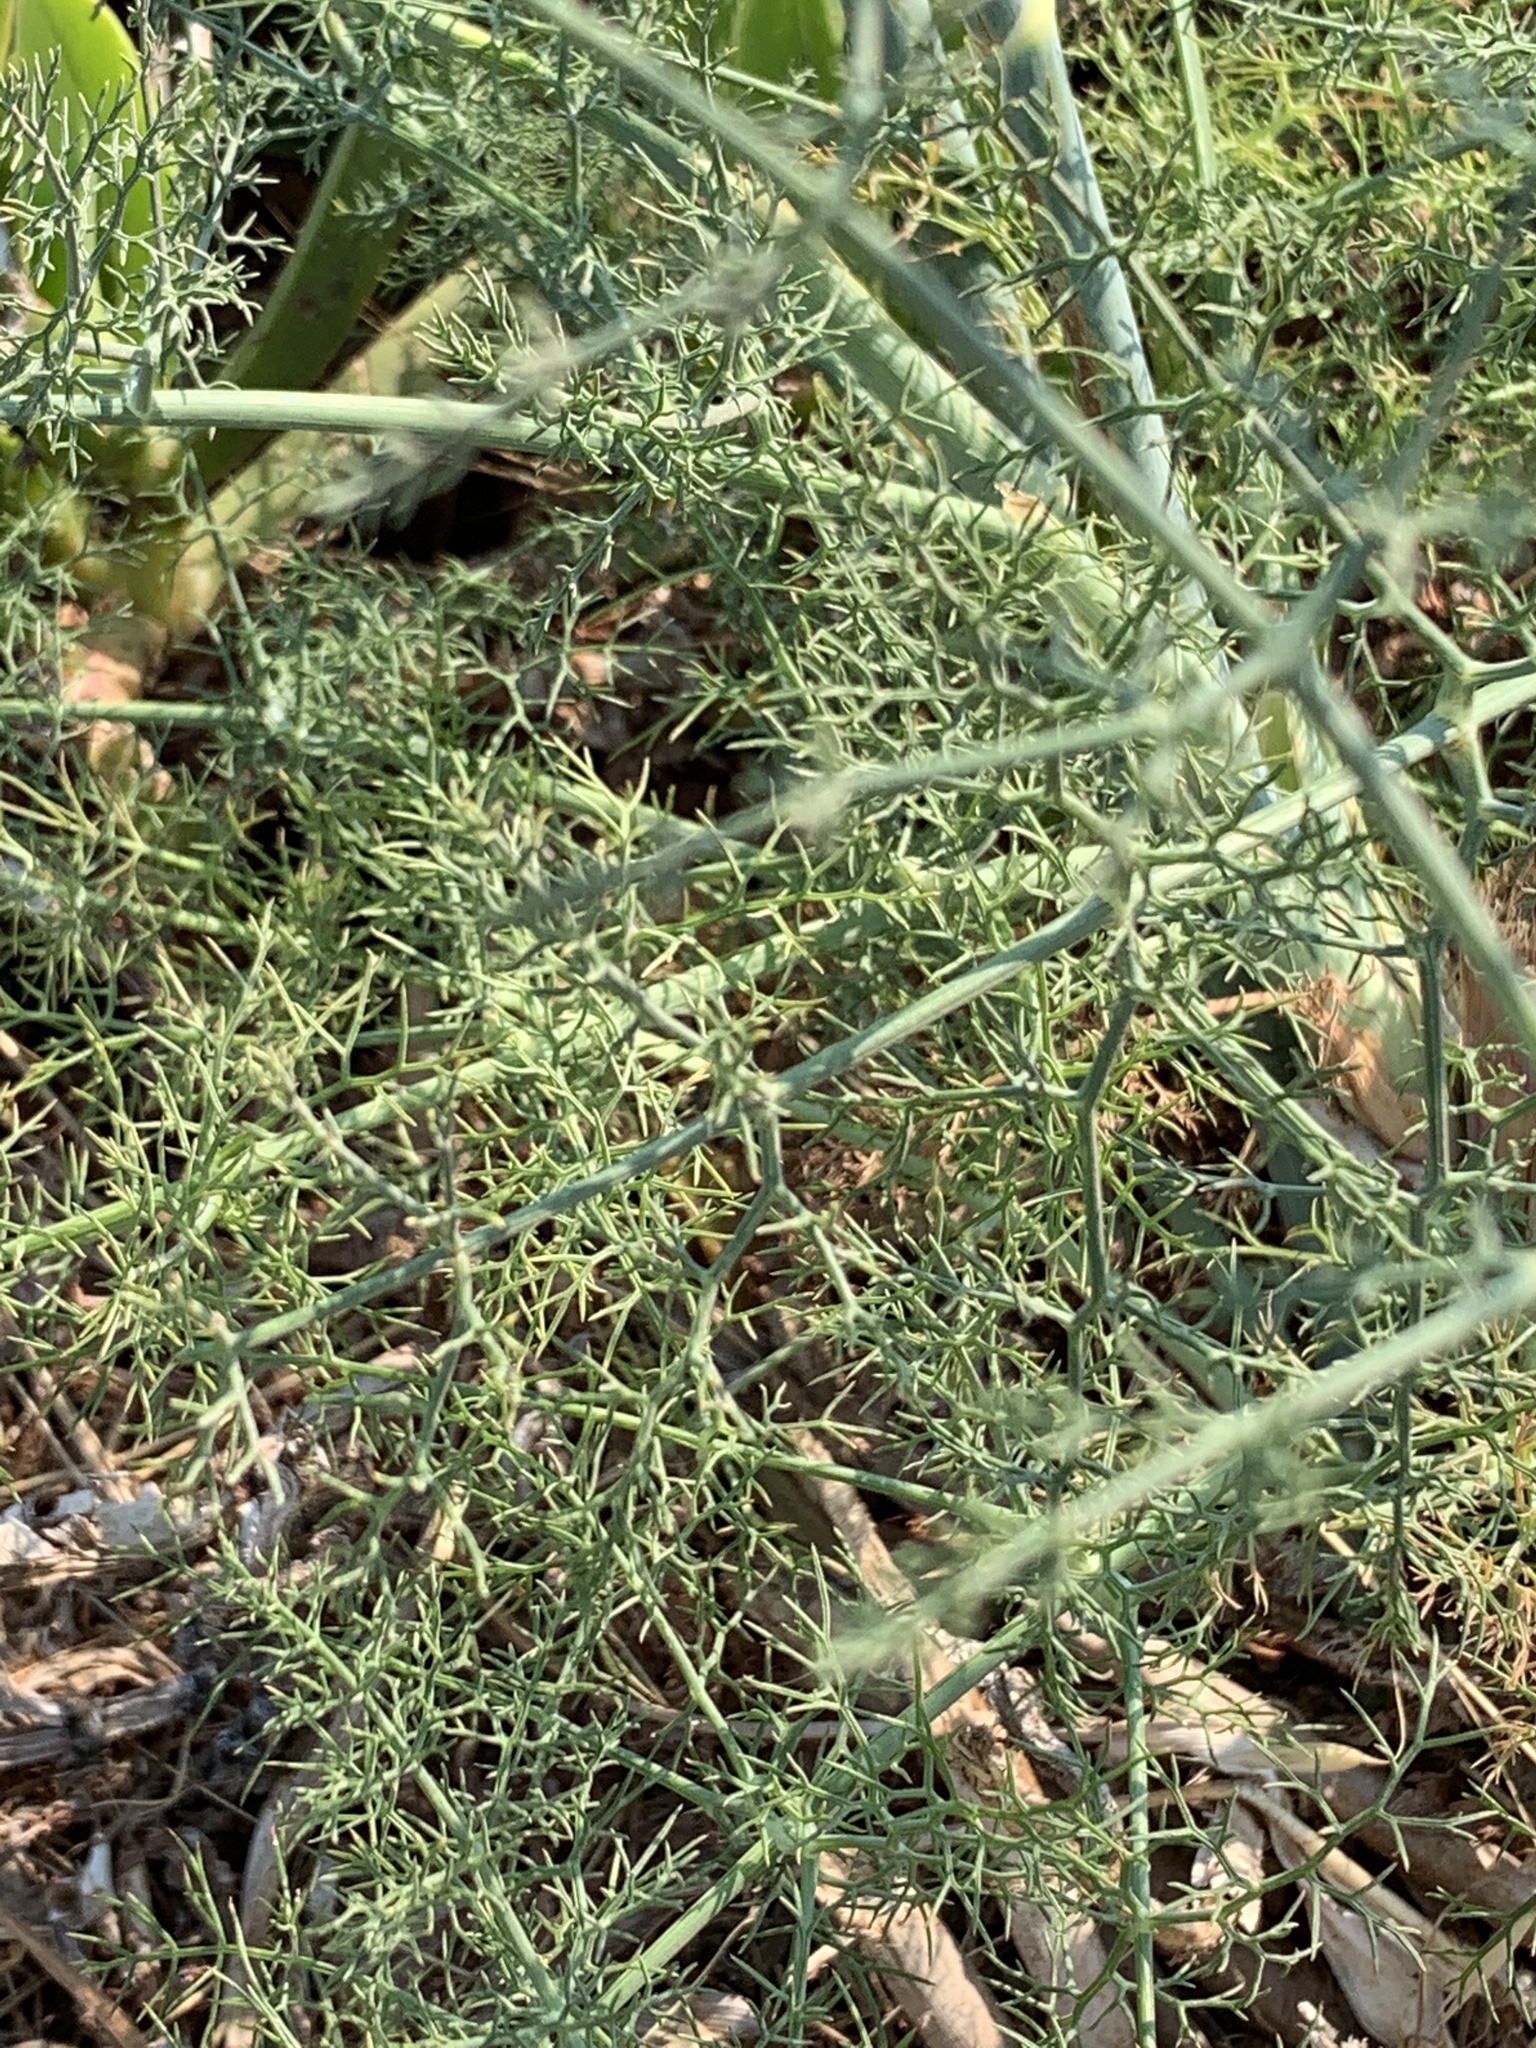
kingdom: Plantae
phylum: Tracheophyta
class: Magnoliopsida
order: Apiales
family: Apiaceae
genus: Foeniculum
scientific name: Foeniculum vulgare
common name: Fennel
